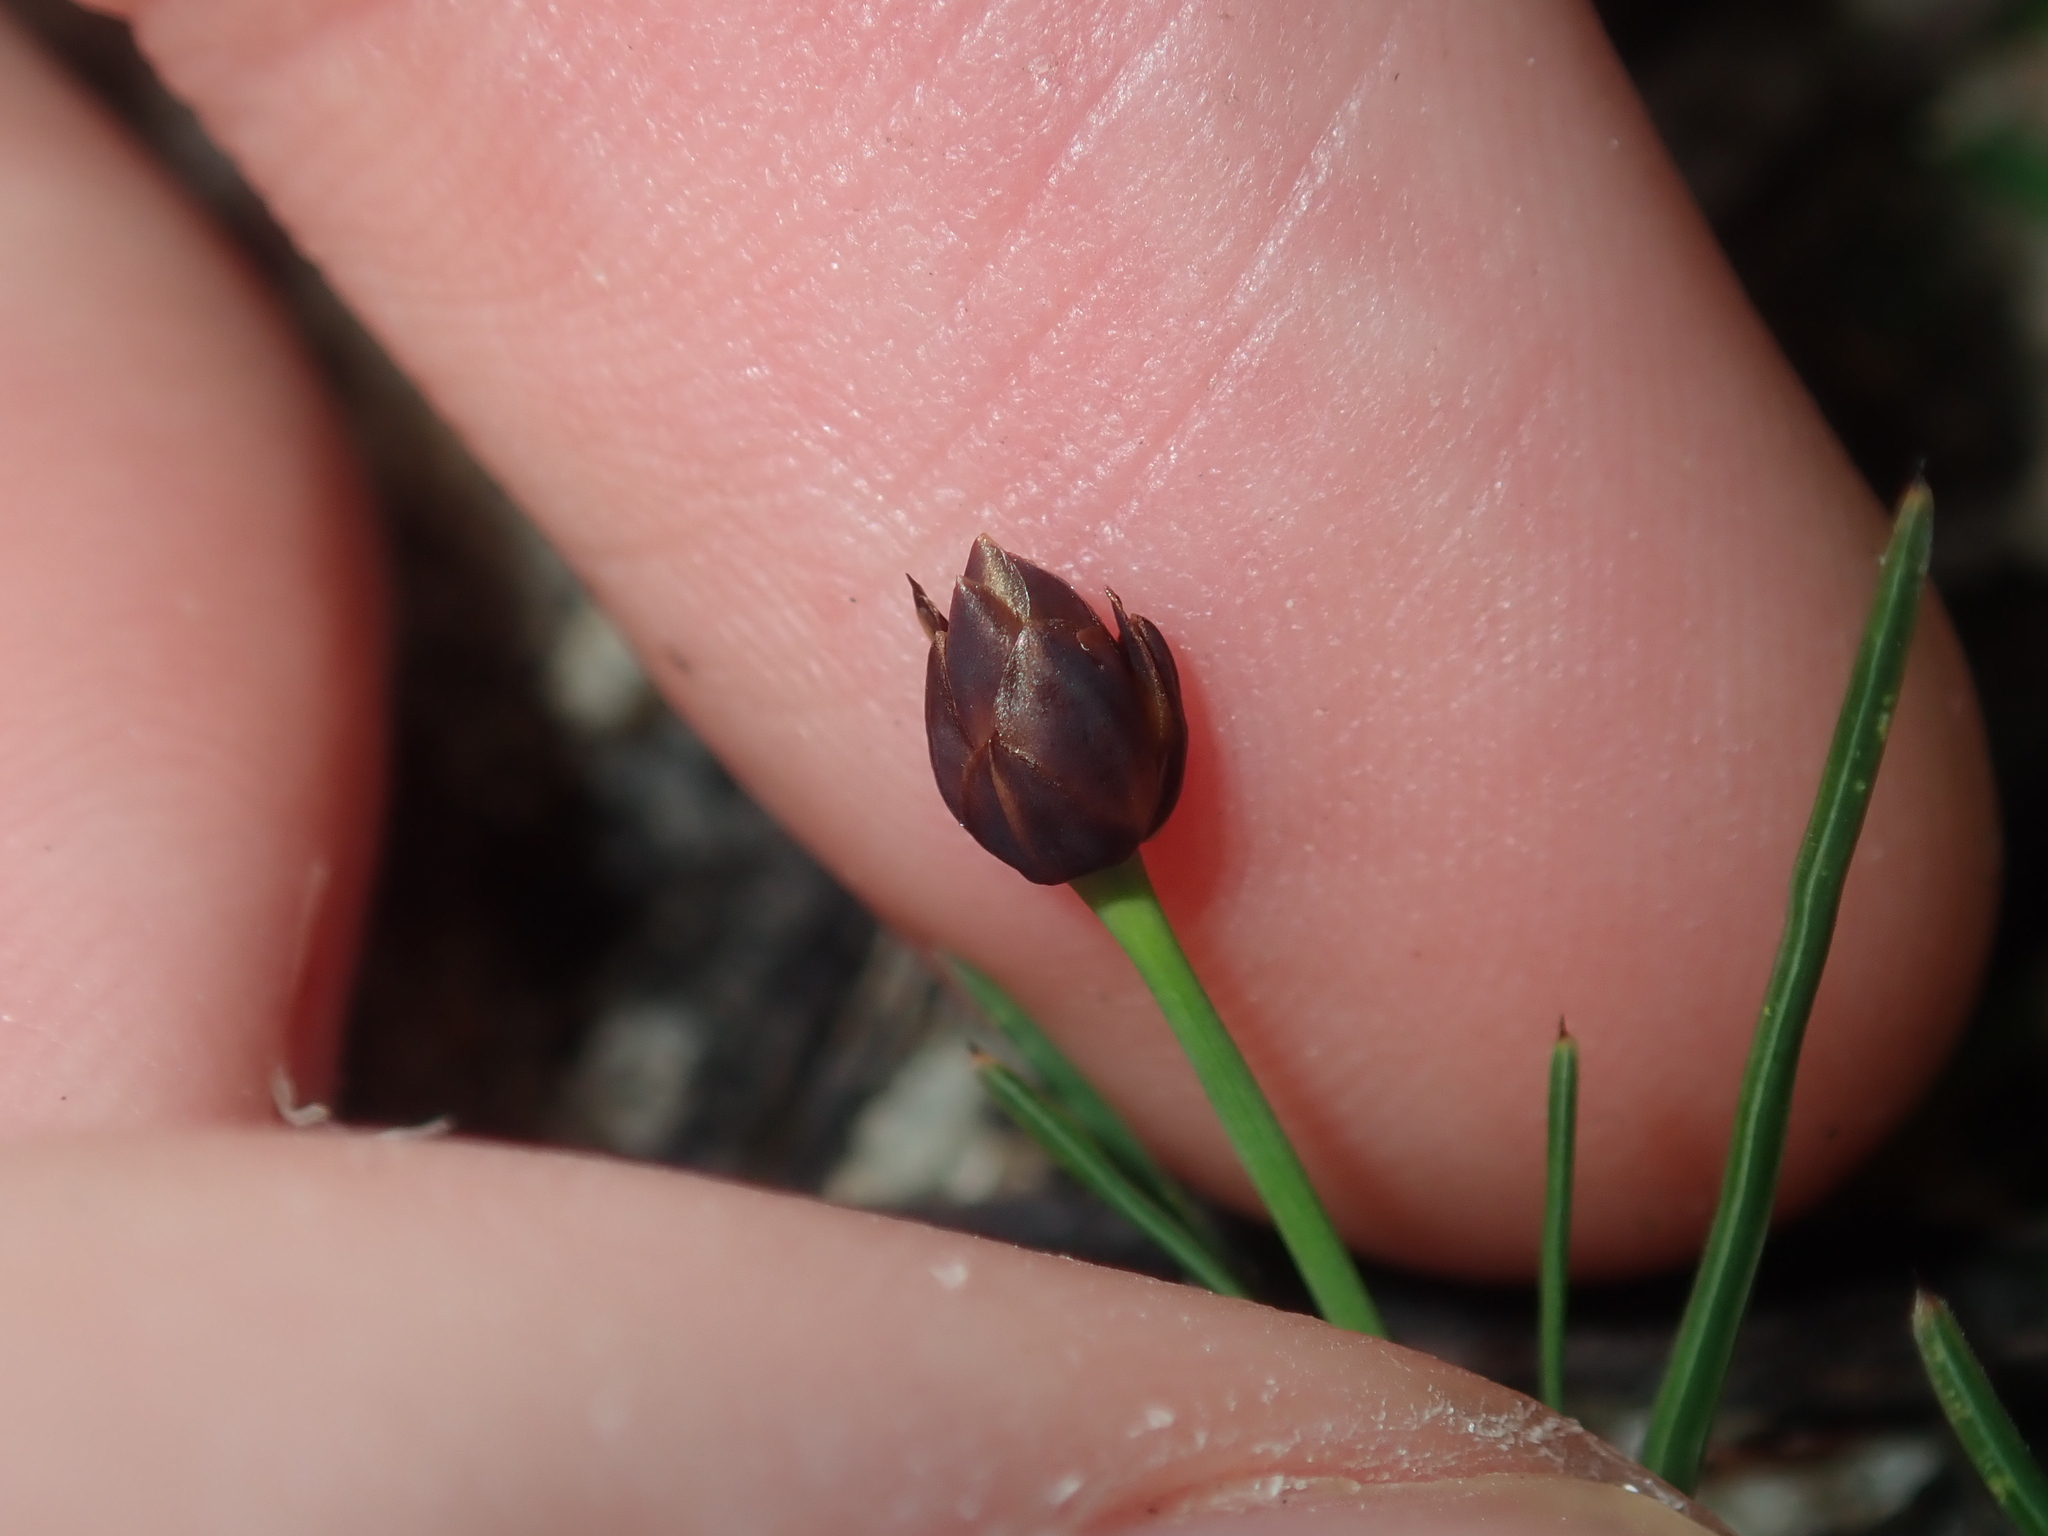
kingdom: Plantae
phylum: Tracheophyta
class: Liliopsida
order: Asparagales
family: Boryaceae
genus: Borya
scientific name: Borya laciniata
